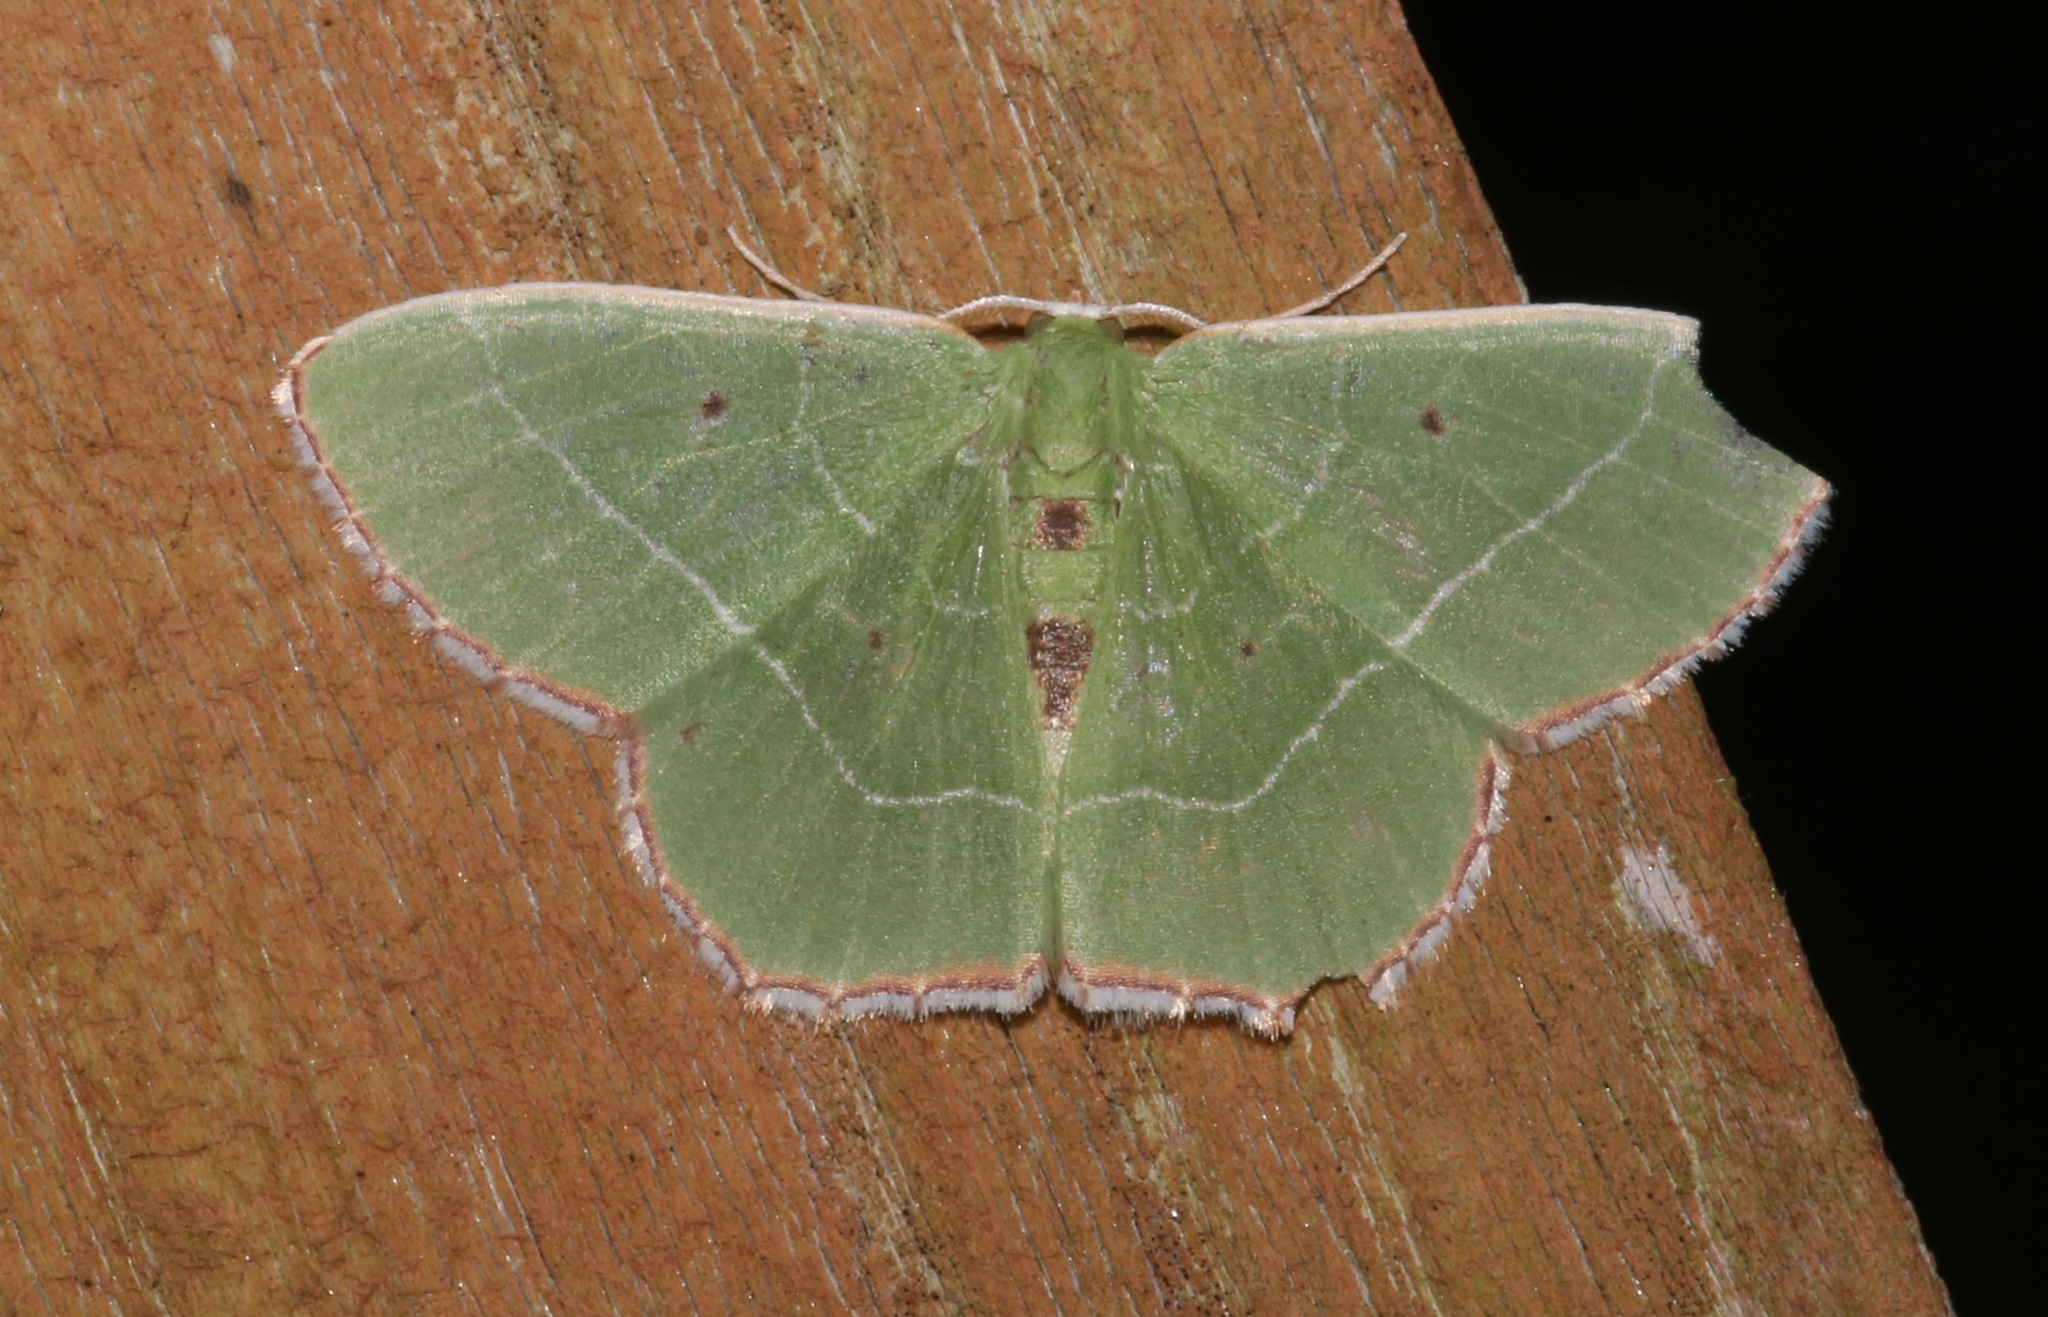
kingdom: Animalia
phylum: Arthropoda
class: Insecta
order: Lepidoptera
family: Geometridae
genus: Nemoria
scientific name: Nemoria saturiba
